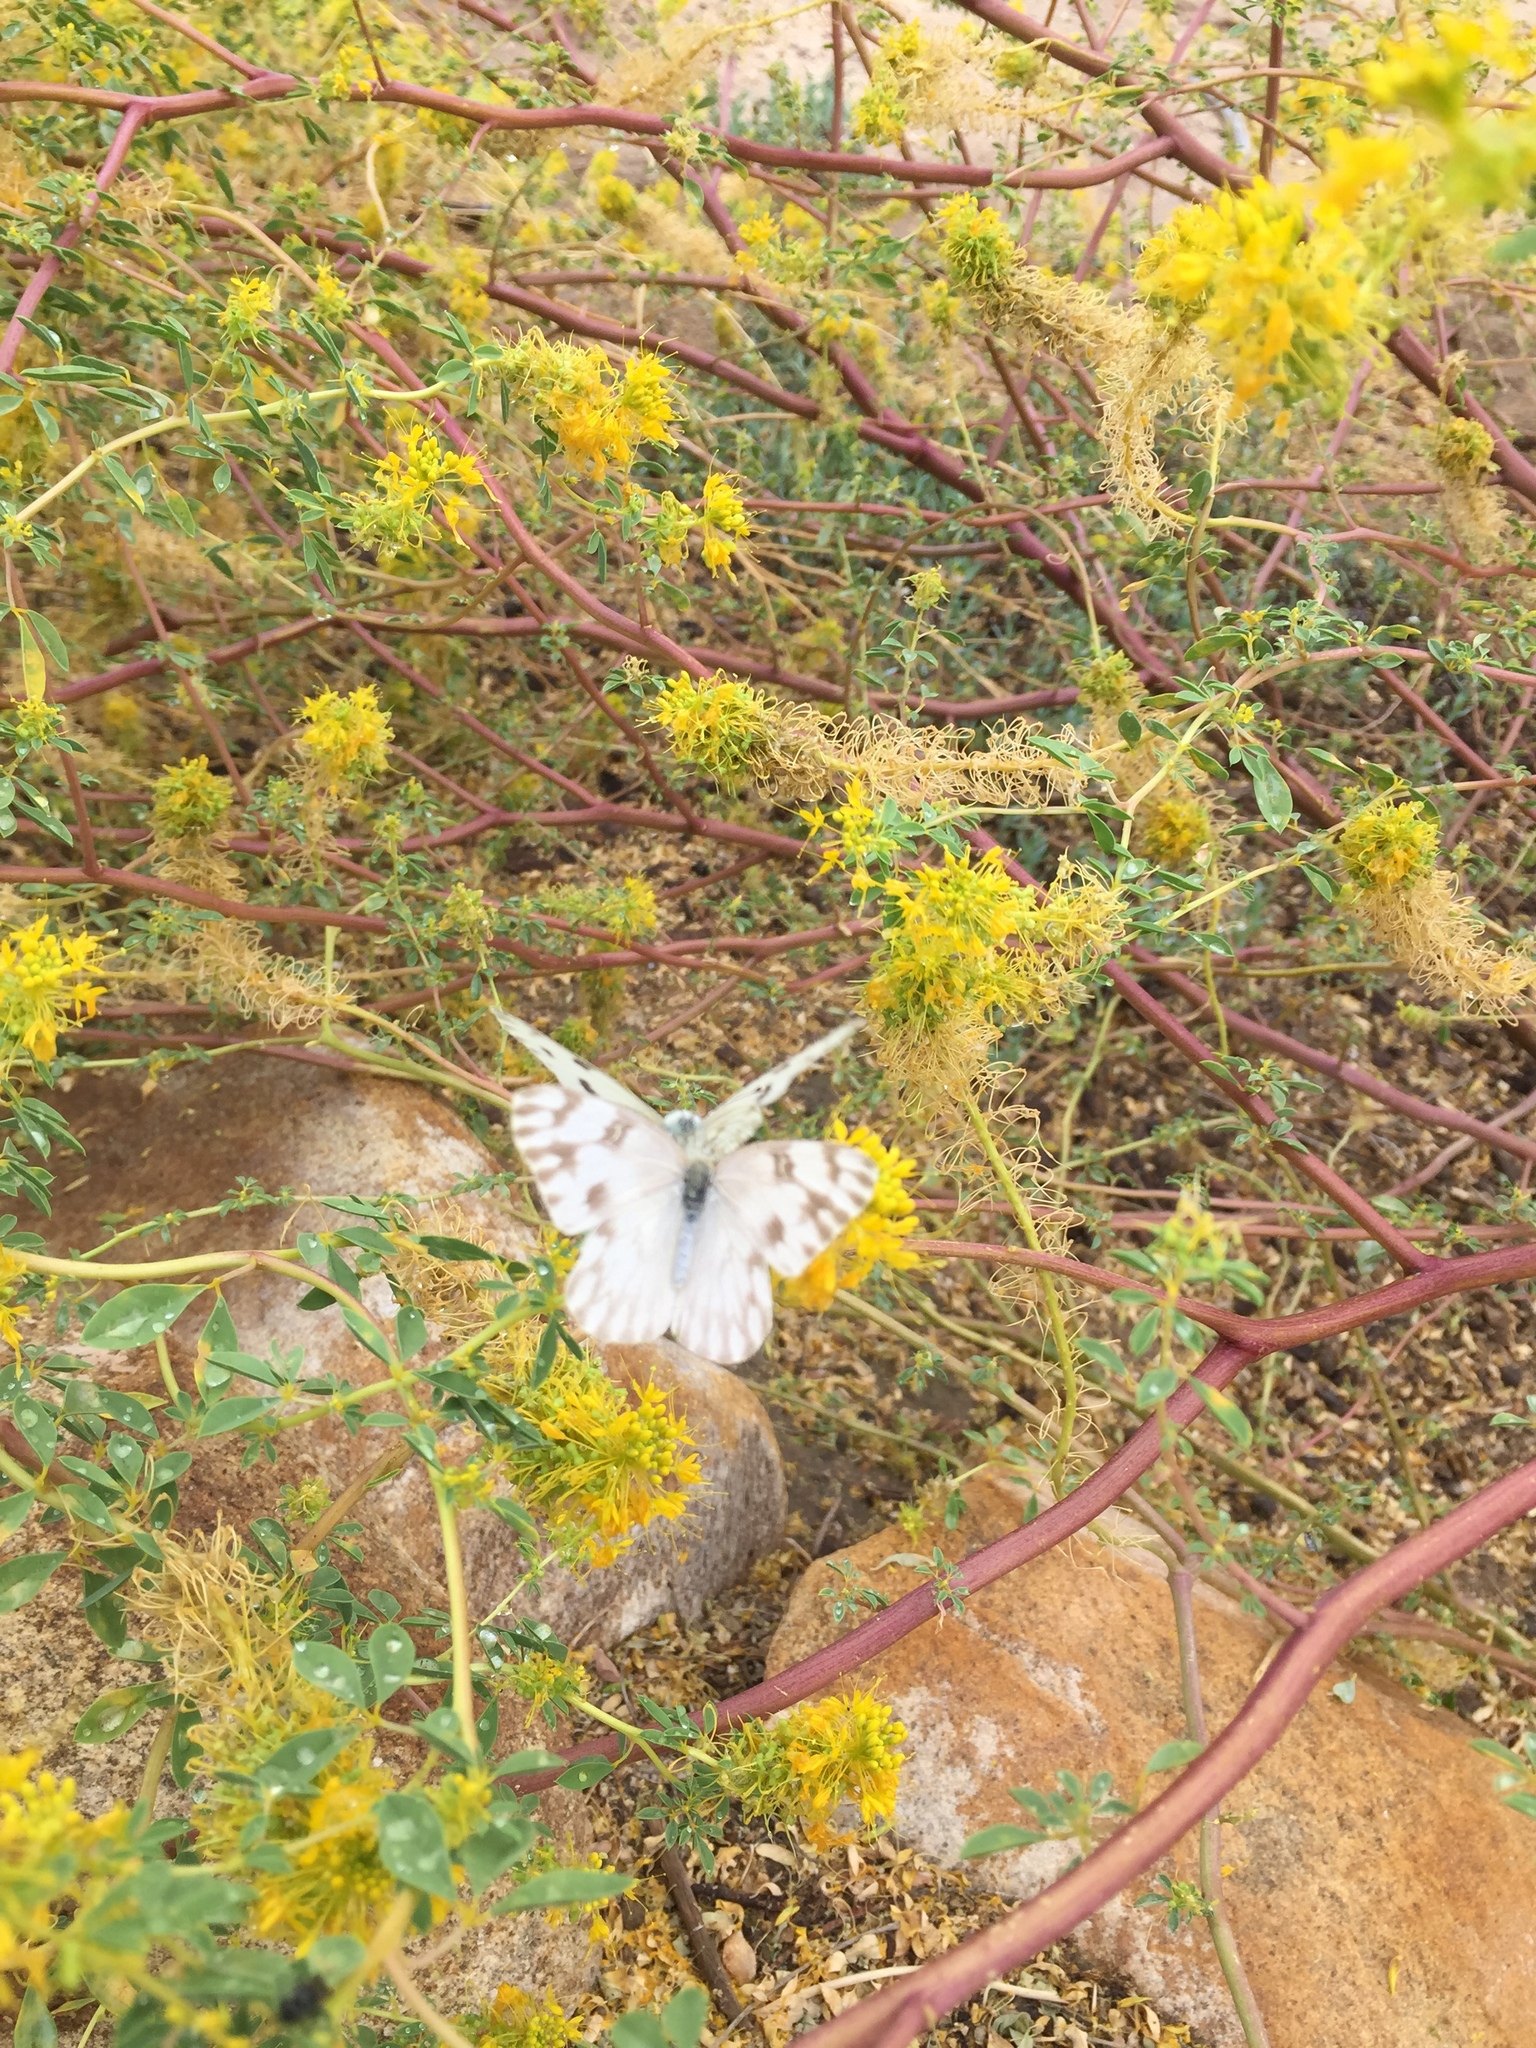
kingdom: Animalia
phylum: Arthropoda
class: Insecta
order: Lepidoptera
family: Pieridae
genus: Pontia
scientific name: Pontia protodice
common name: Checkered white
